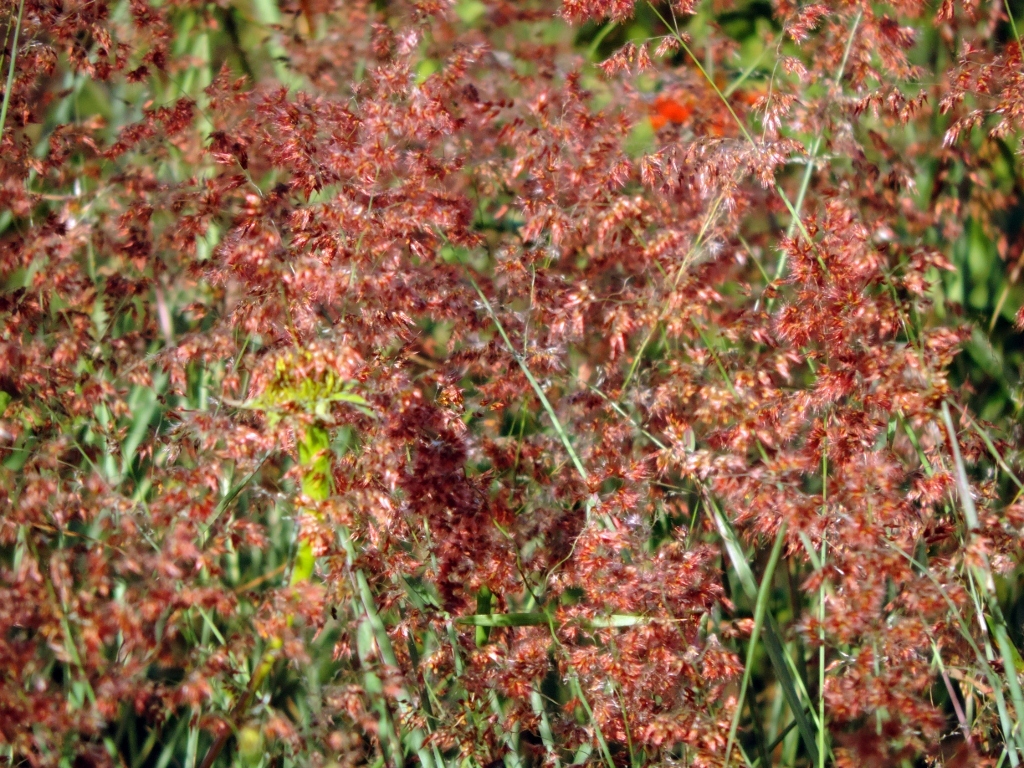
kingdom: Plantae
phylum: Tracheophyta
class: Liliopsida
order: Poales
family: Poaceae
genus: Melinis
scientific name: Melinis repens
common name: Rose natal grass
